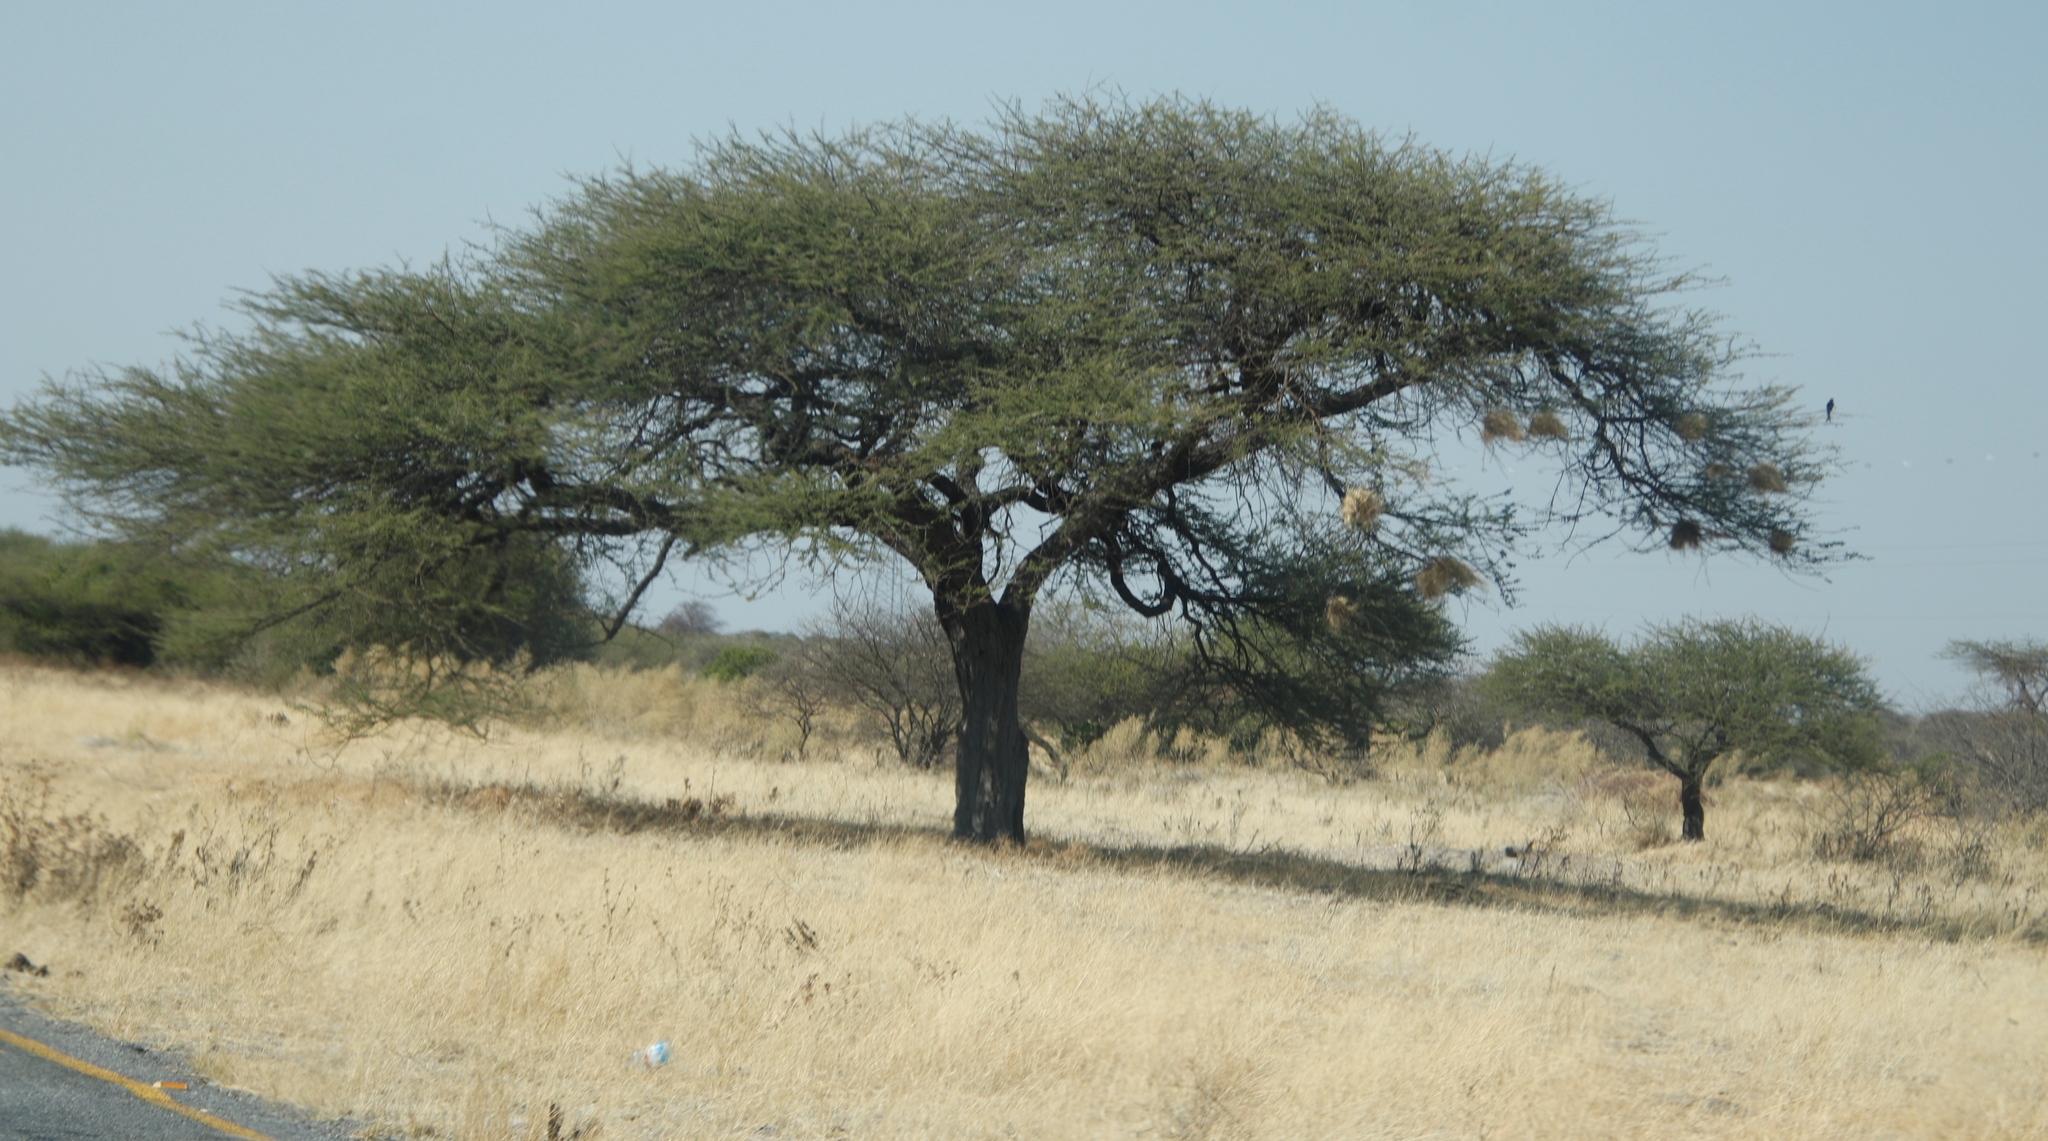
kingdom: Animalia
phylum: Chordata
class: Aves
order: Passeriformes
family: Passeridae
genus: Plocepasser
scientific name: Plocepasser mahali
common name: White-browed sparrow-weaver
